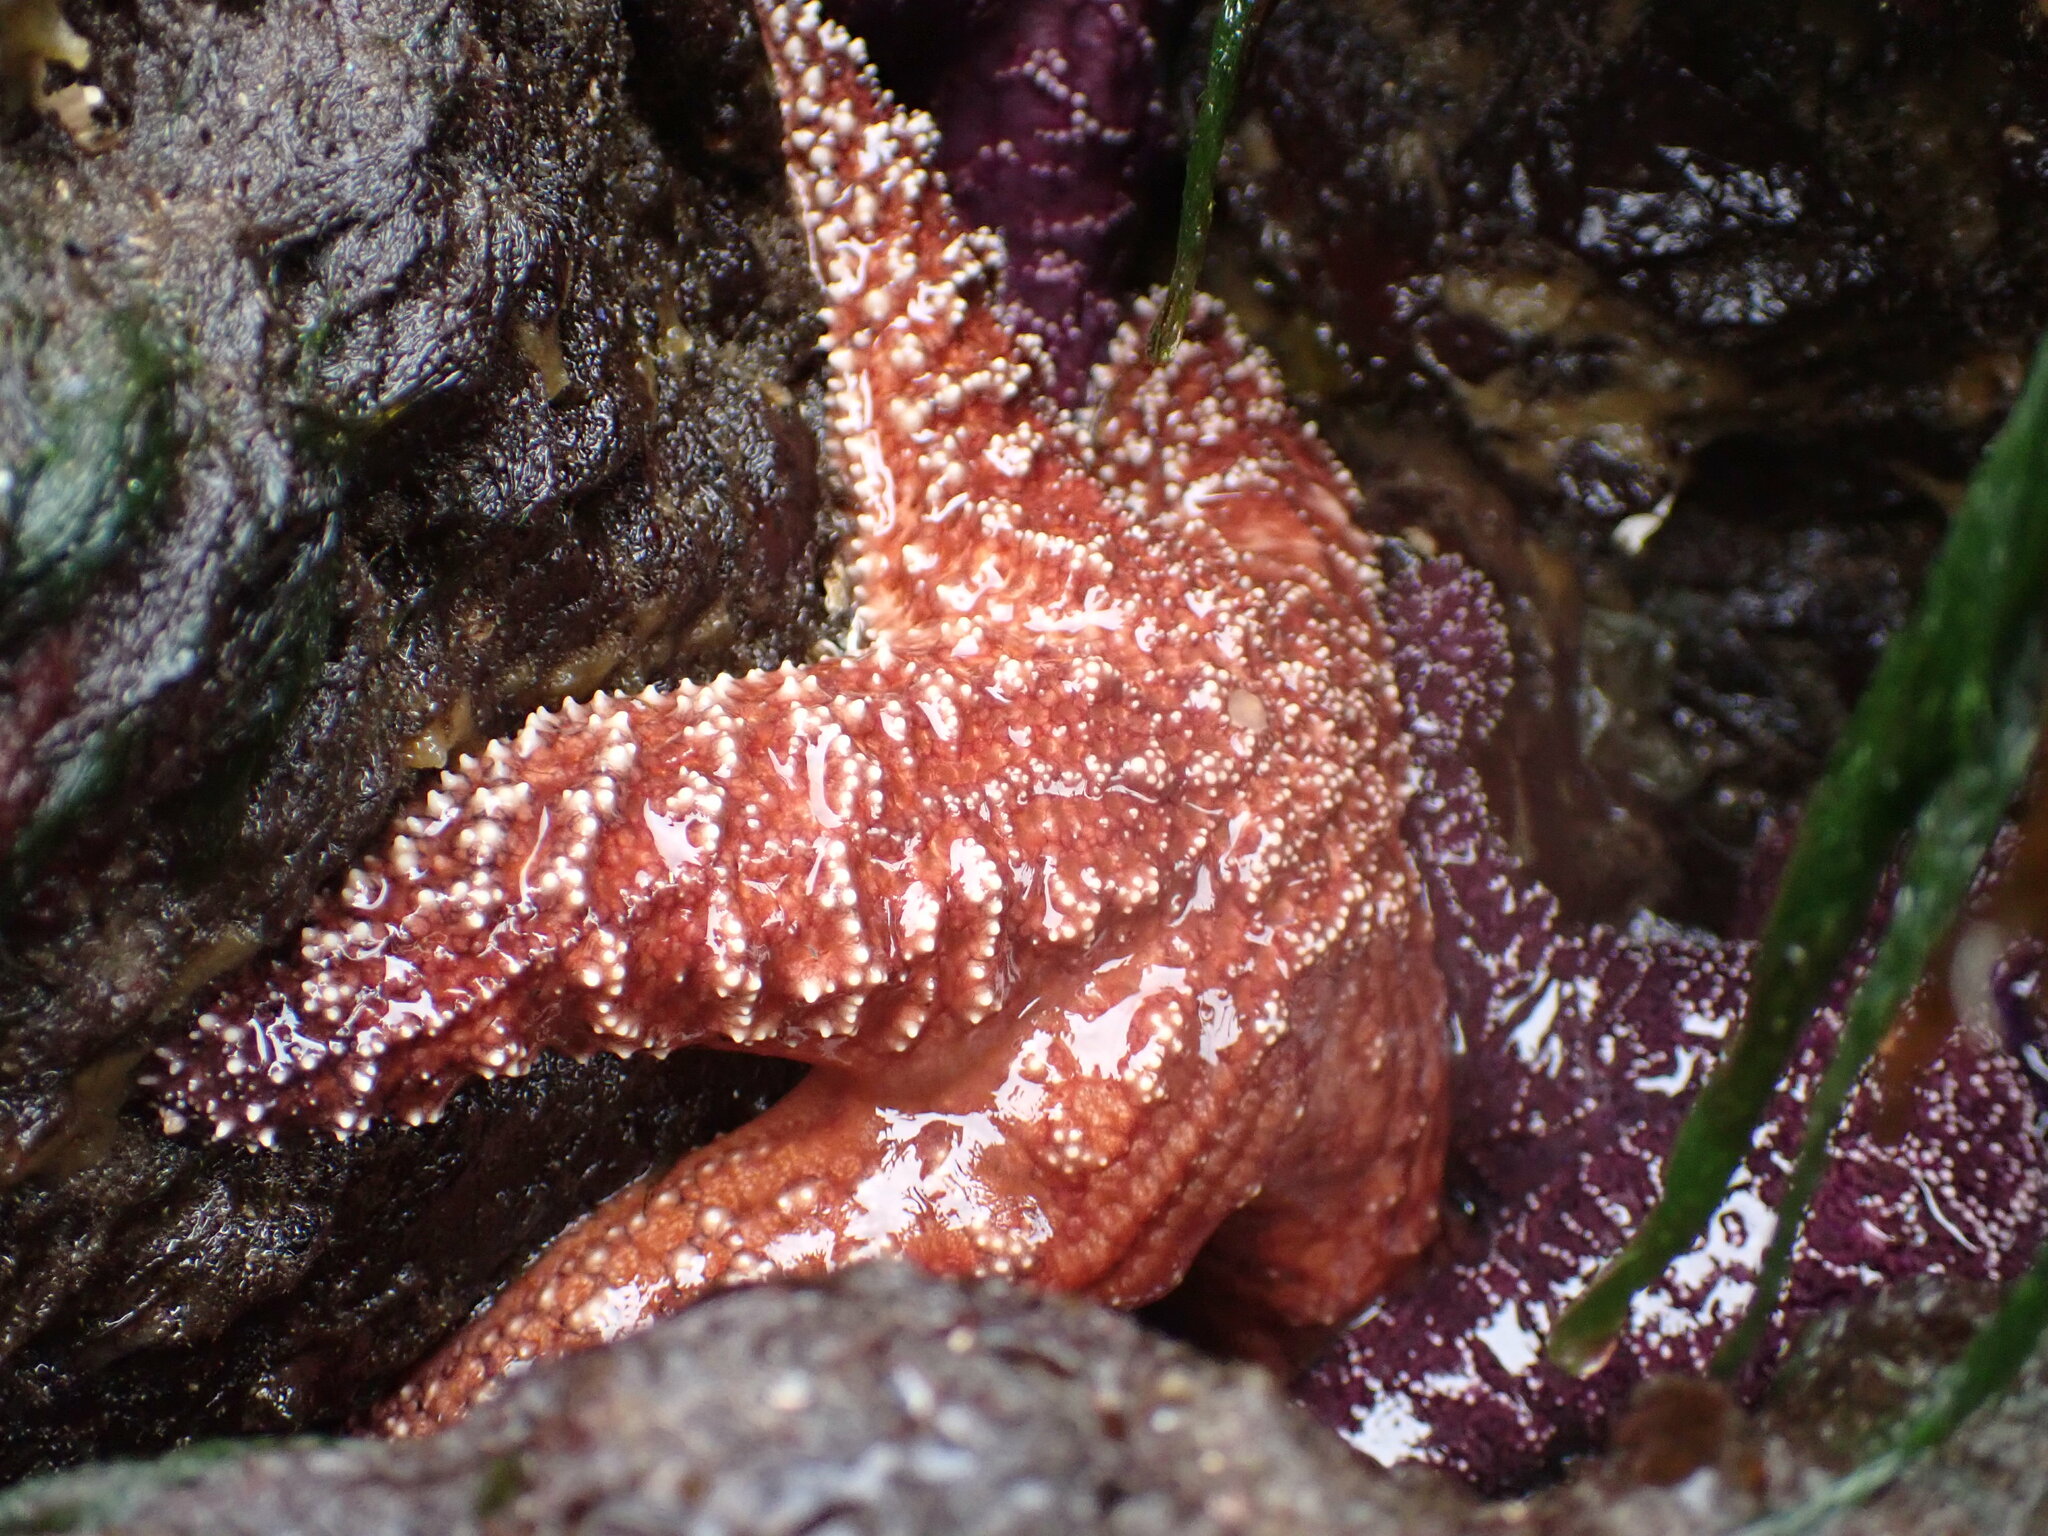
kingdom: Animalia
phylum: Echinodermata
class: Asteroidea
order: Forcipulatida
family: Asteriidae
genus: Pisaster
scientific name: Pisaster ochraceus
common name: Ochre stars
